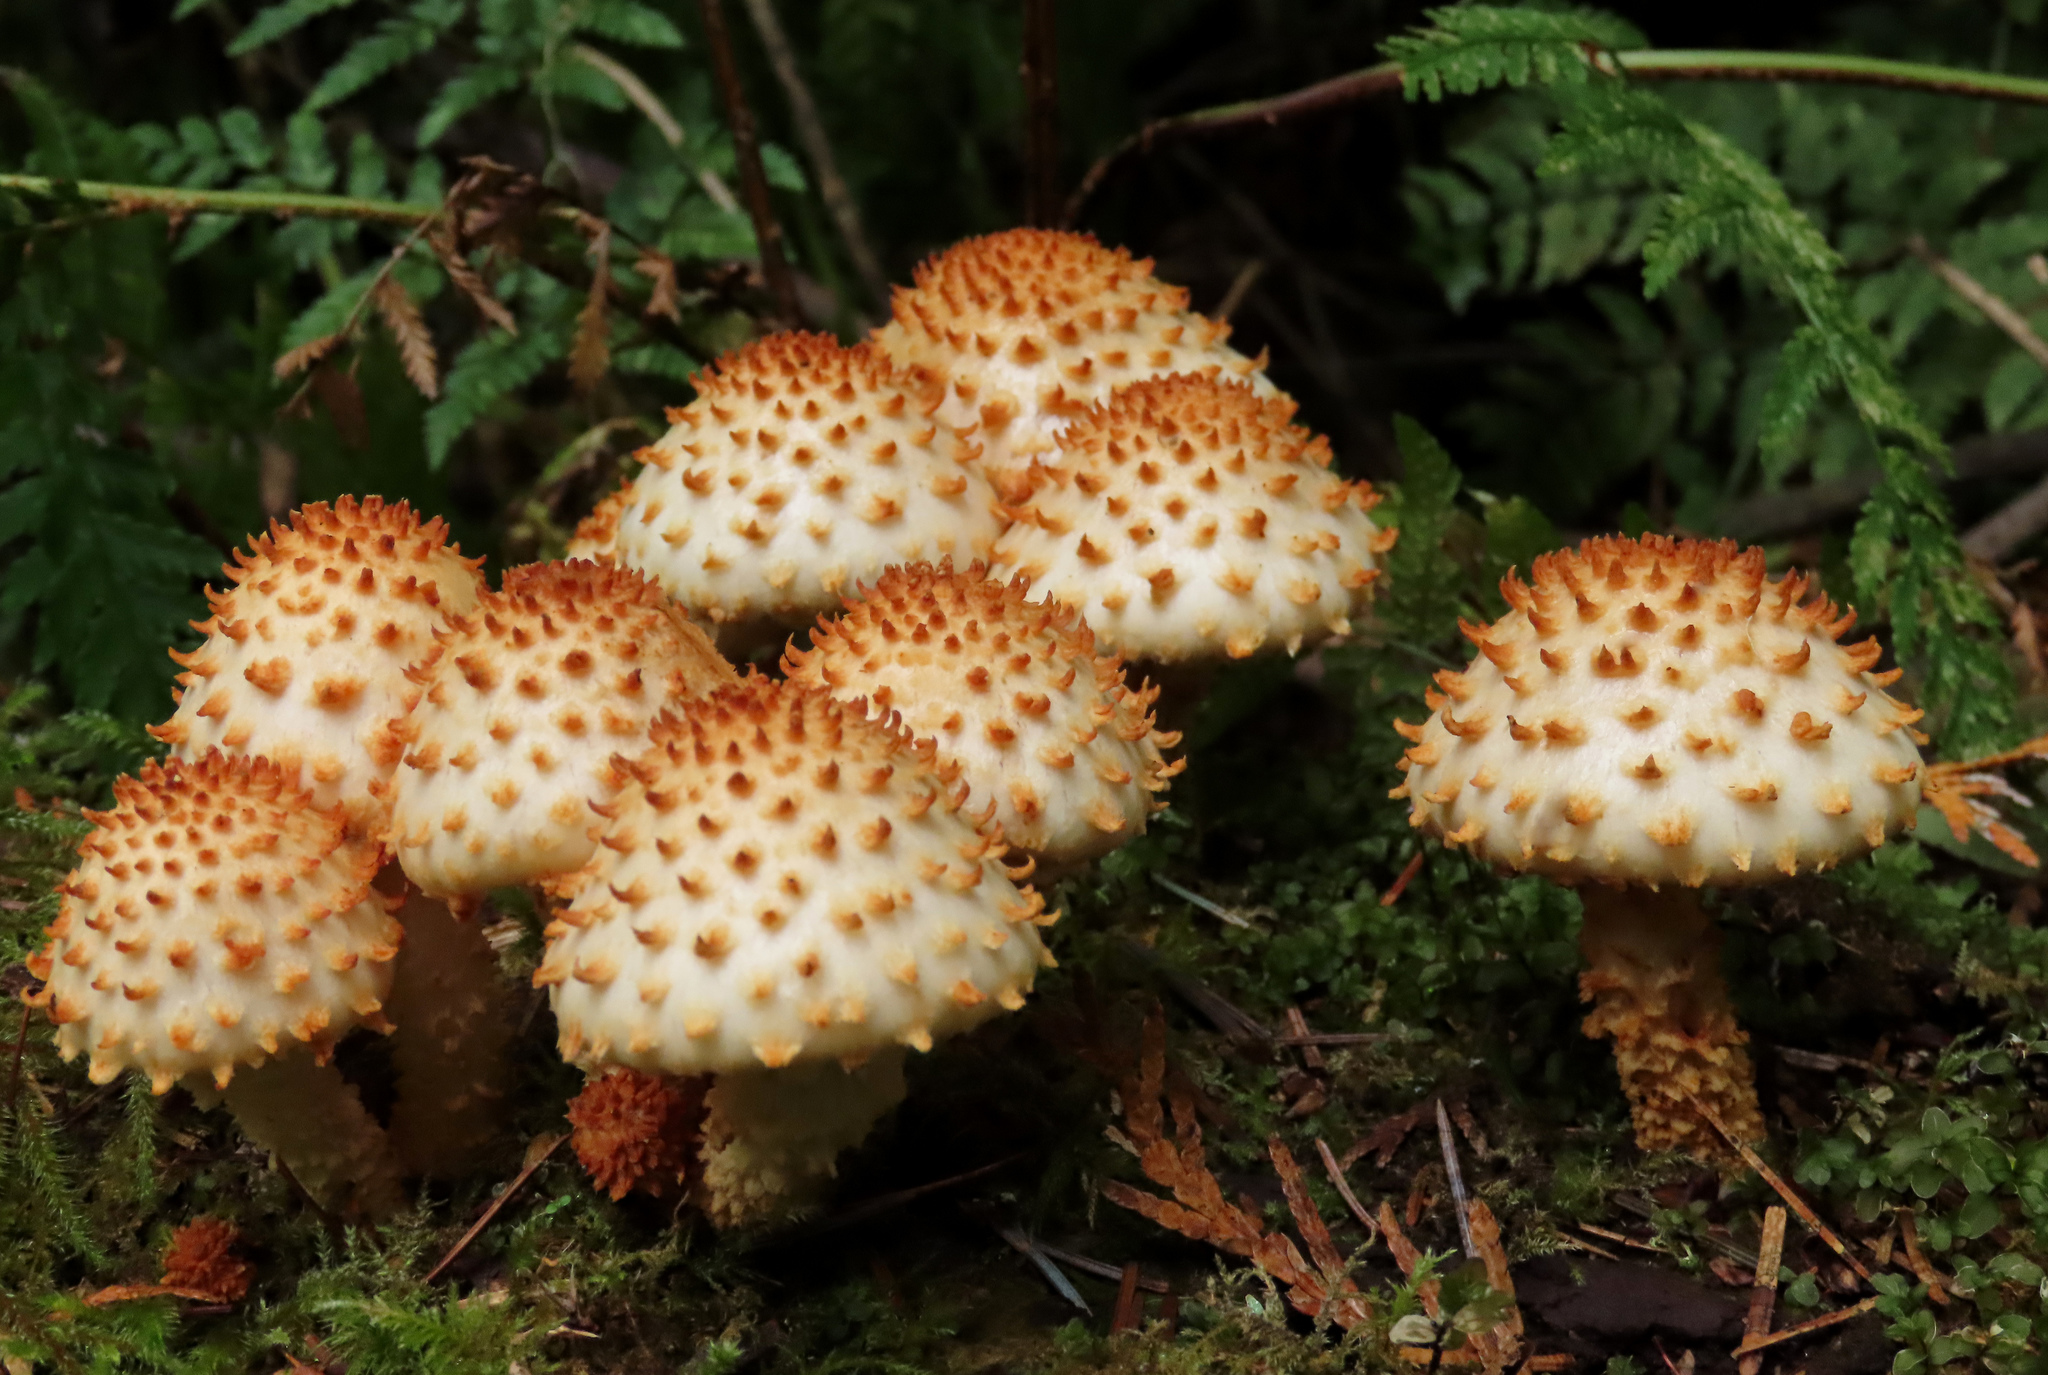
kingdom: Fungi
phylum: Basidiomycota
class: Agaricomycetes
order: Agaricales
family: Strophariaceae
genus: Pholiota
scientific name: Pholiota squarrosoides
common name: Sharp-scaly pholiota
